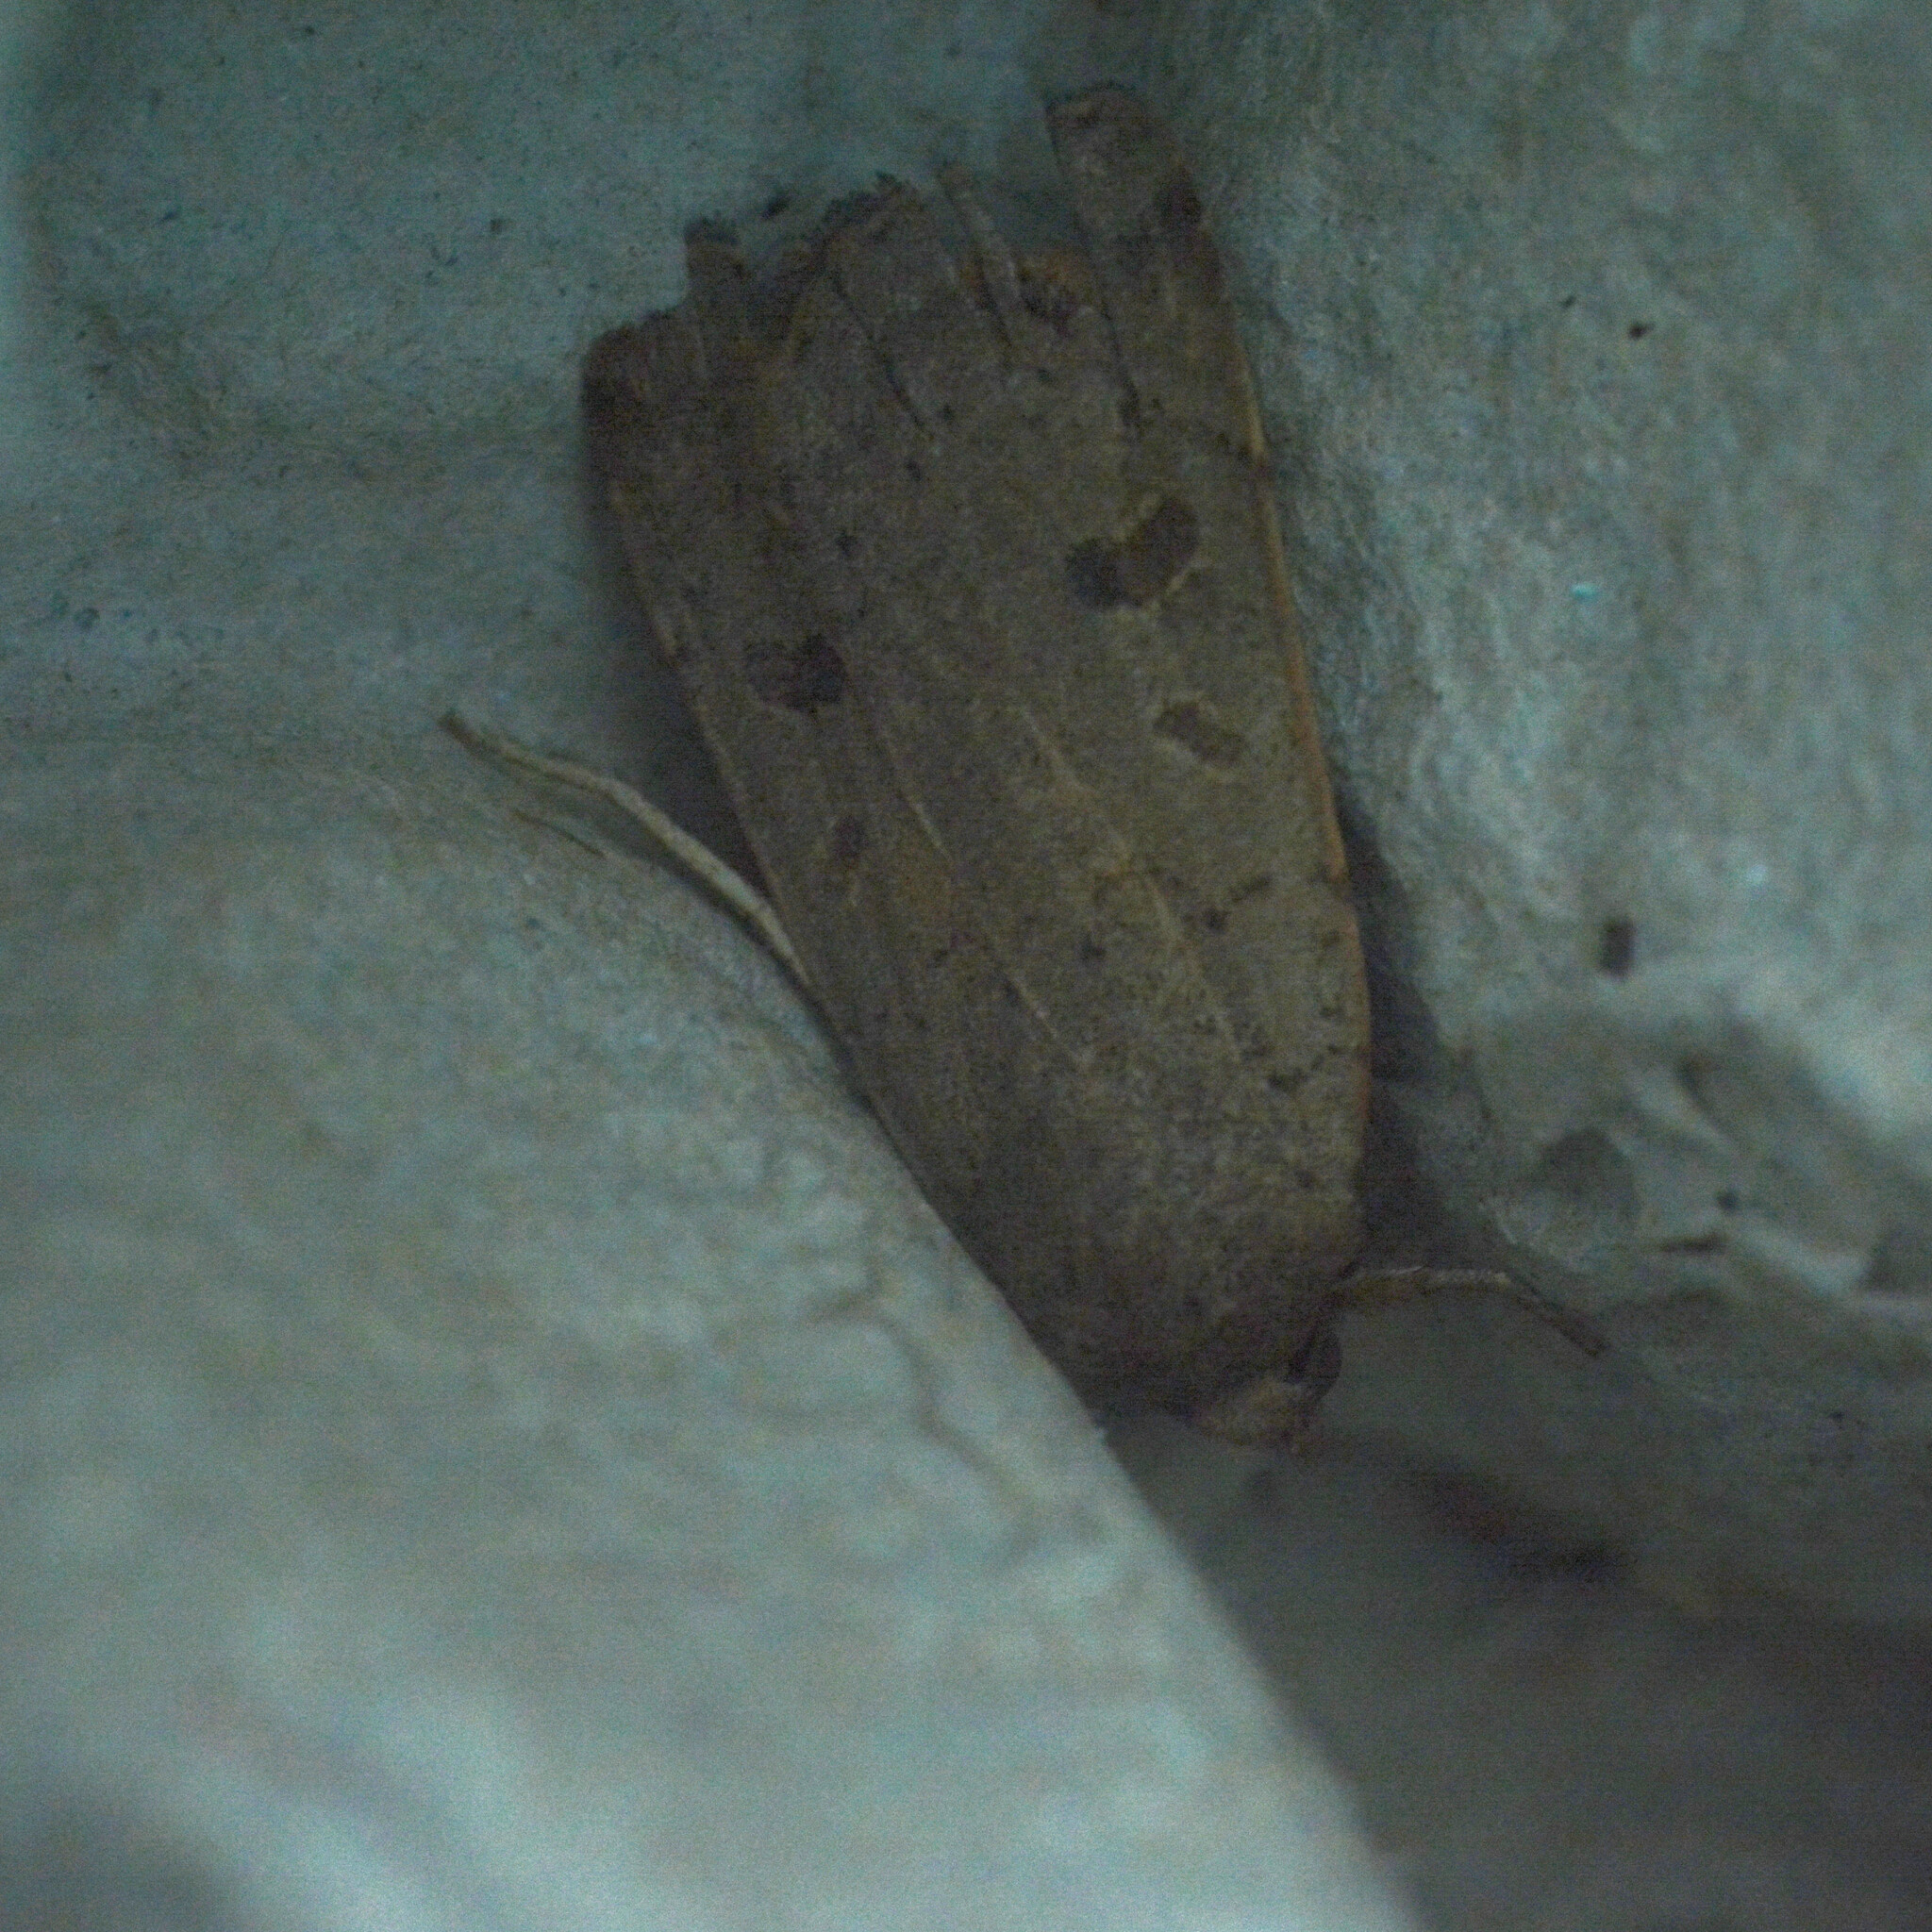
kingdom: Animalia
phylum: Arthropoda
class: Insecta
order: Lepidoptera
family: Noctuidae
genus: Noctua
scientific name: Noctua comes
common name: Lesser yellow underwing
